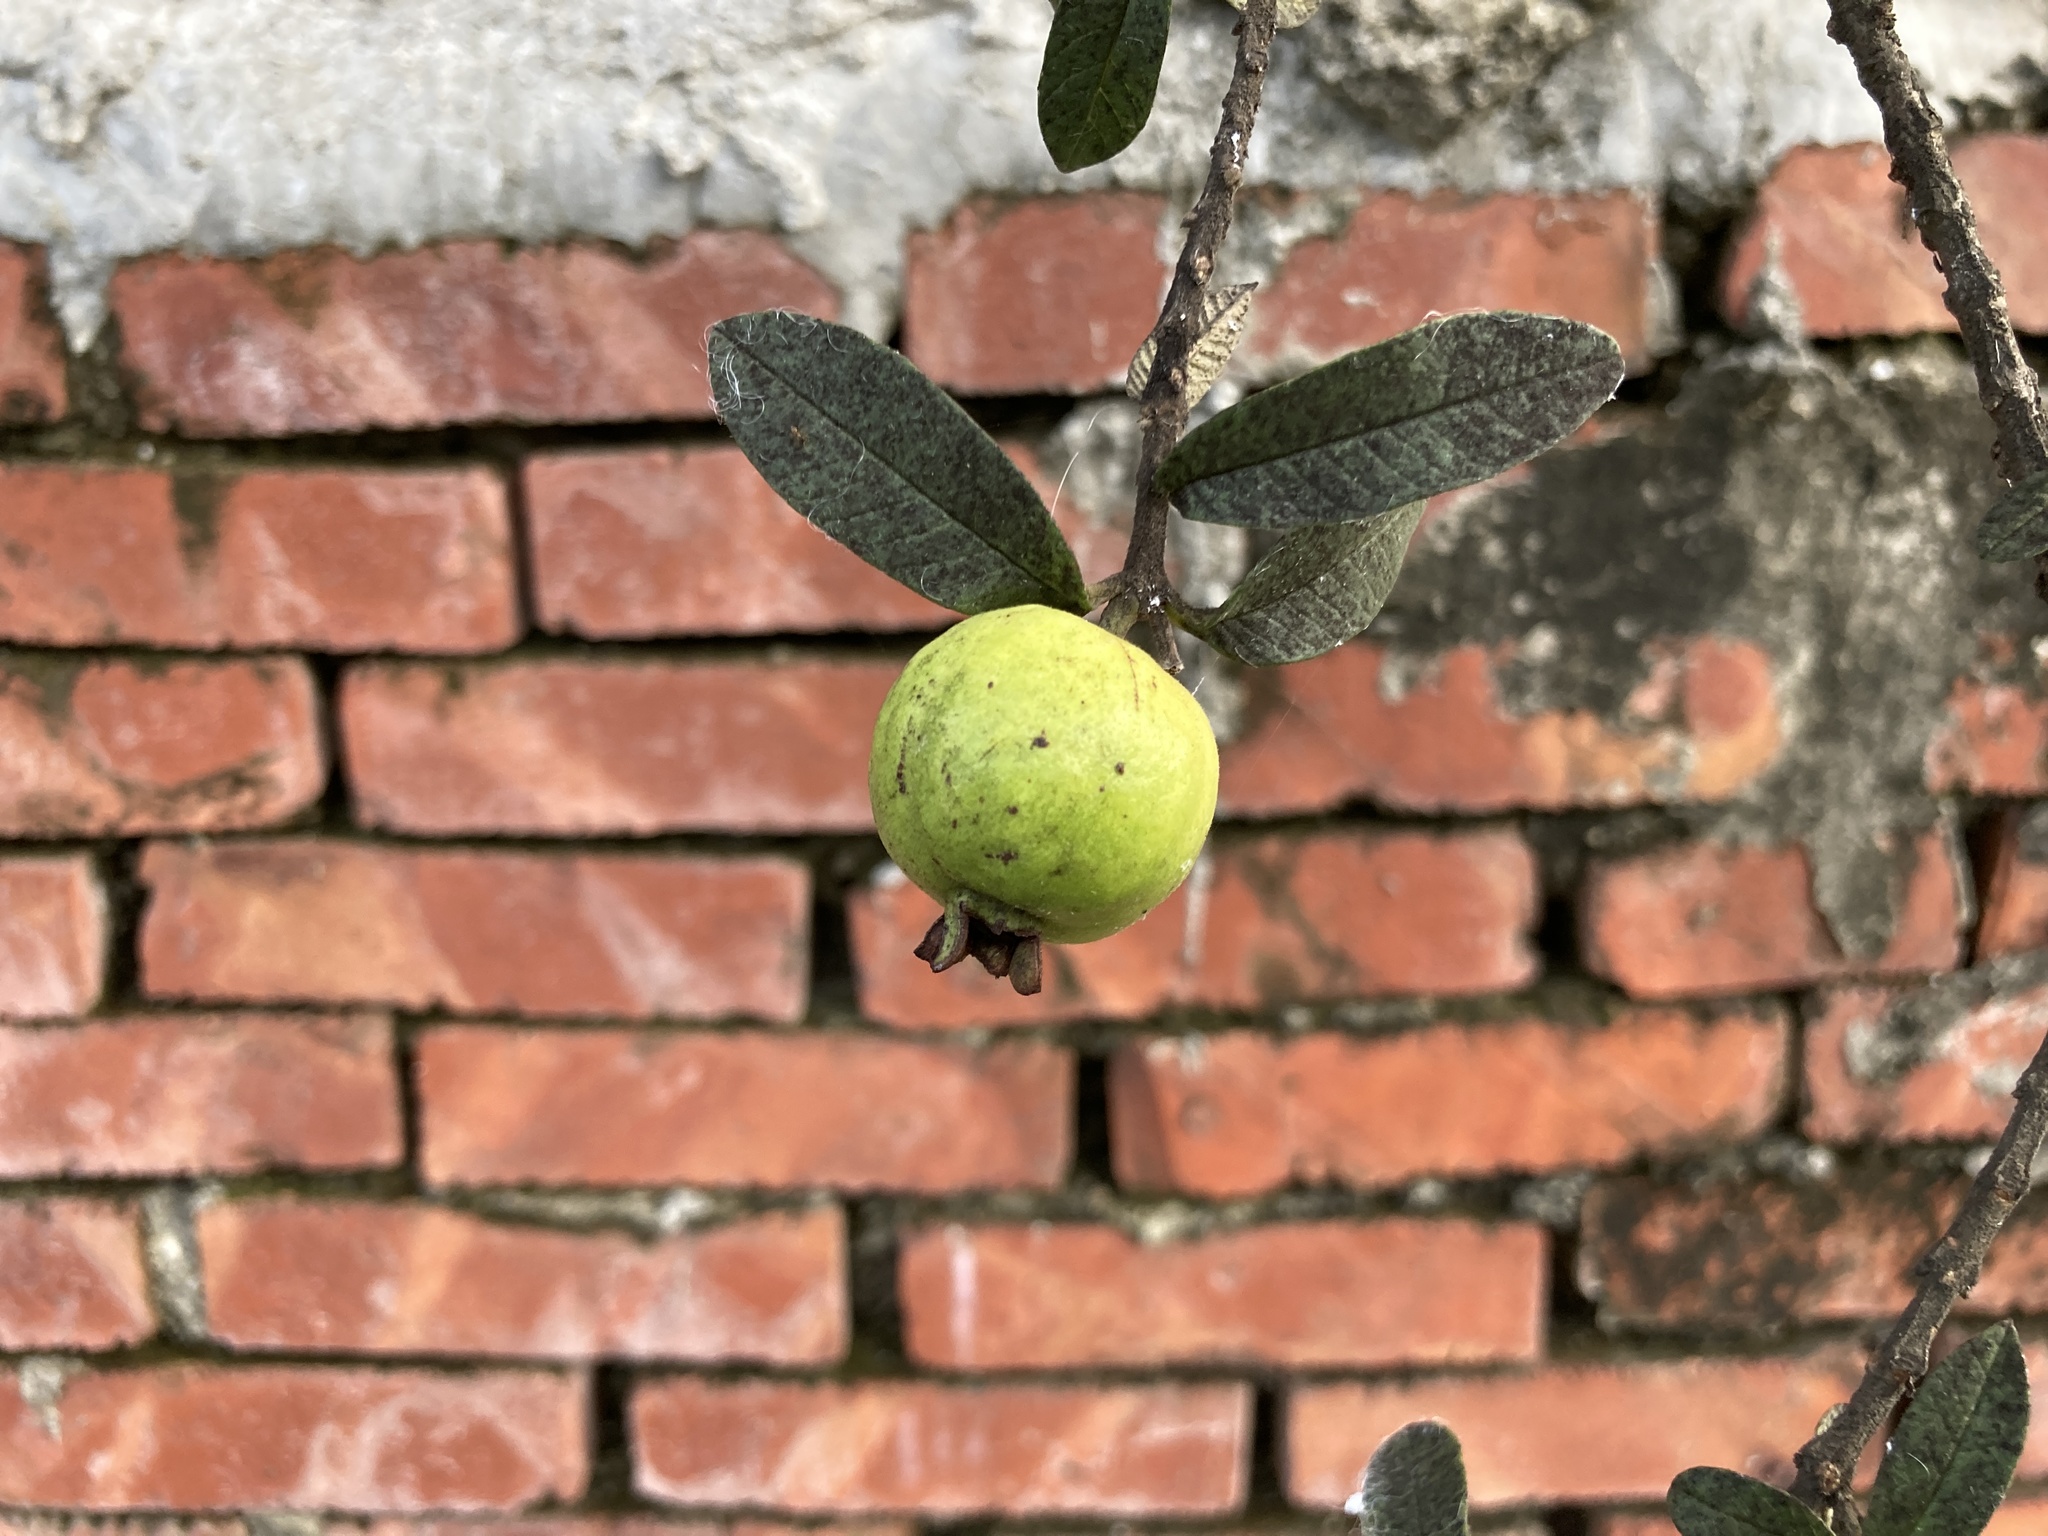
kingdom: Plantae
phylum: Tracheophyta
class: Magnoliopsida
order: Myrtales
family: Myrtaceae
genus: Psidium
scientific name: Psidium guajava
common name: Guava
